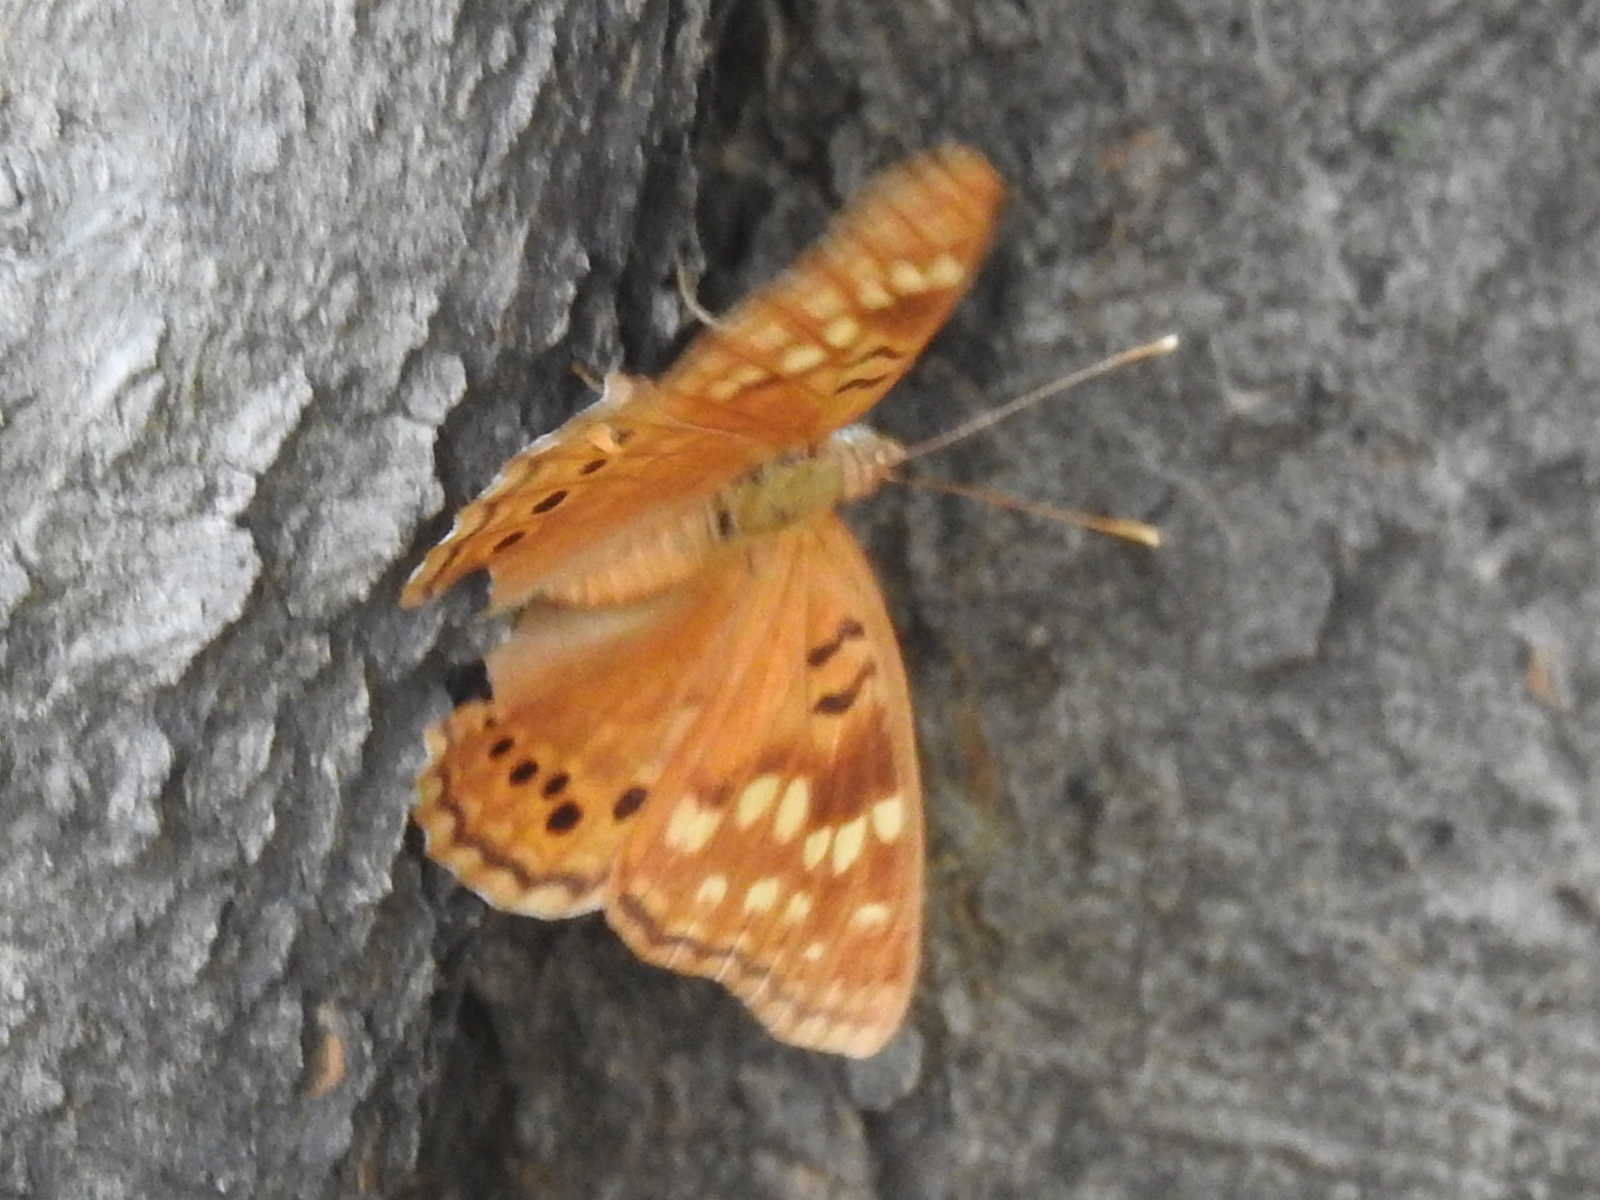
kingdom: Animalia
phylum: Arthropoda
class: Insecta
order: Lepidoptera
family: Nymphalidae
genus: Asterocampa
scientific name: Asterocampa clyton
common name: Tawny emperor
